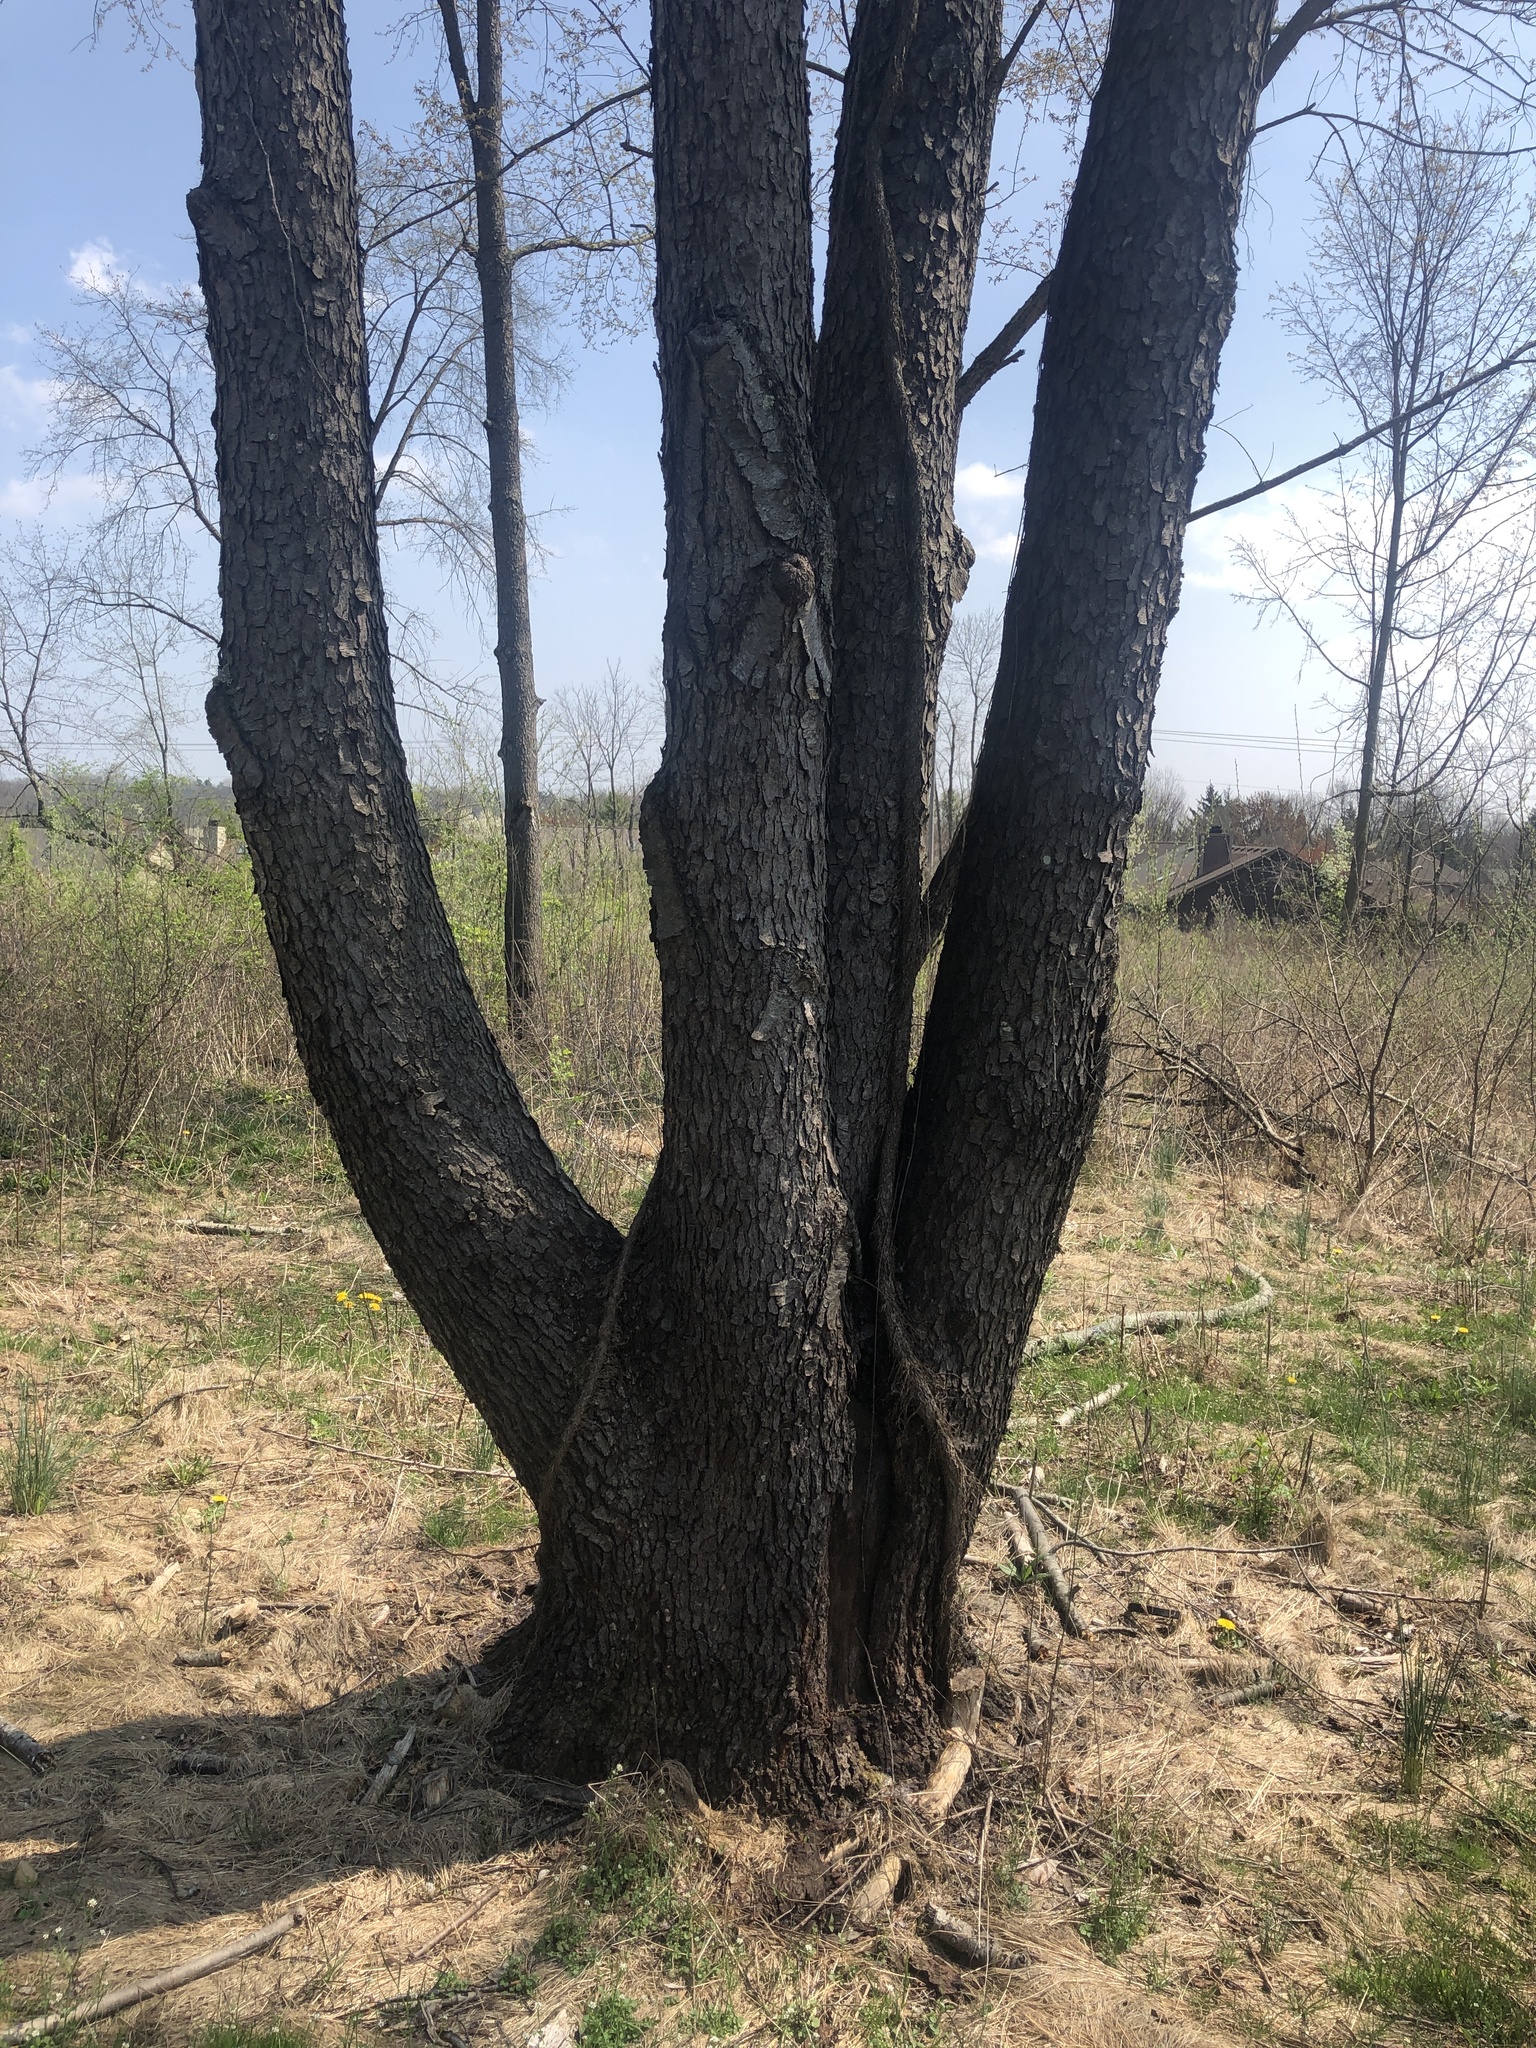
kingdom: Plantae
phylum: Tracheophyta
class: Magnoliopsida
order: Rosales
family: Rosaceae
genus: Prunus
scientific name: Prunus serotina
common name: Black cherry
